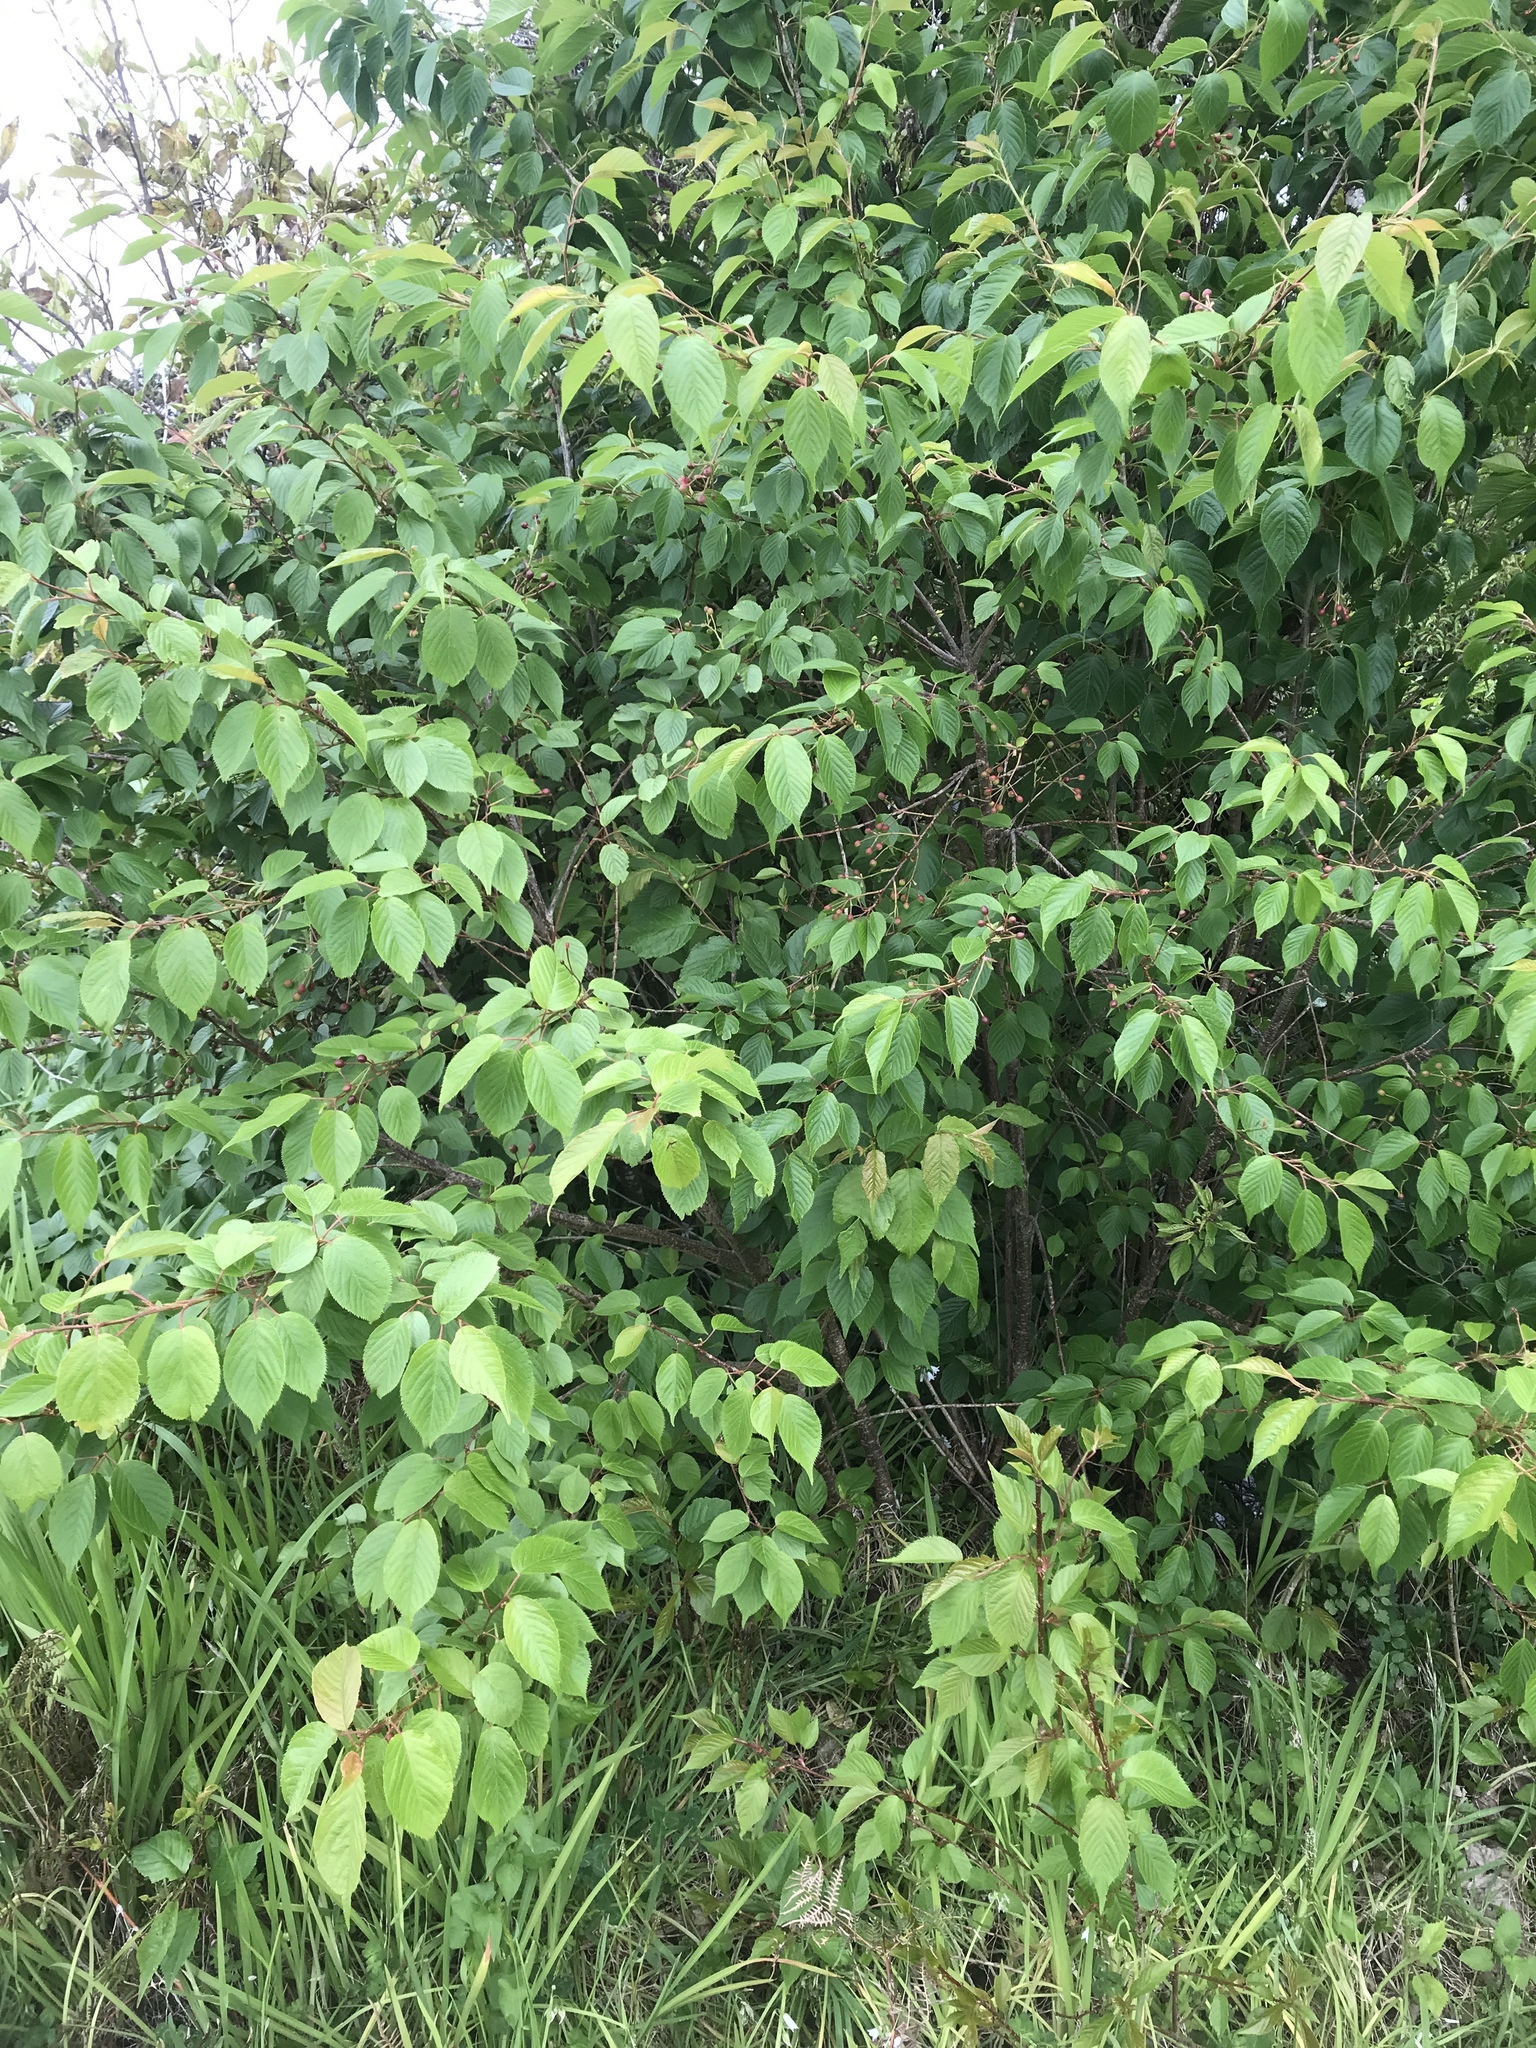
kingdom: Plantae
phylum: Tracheophyta
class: Magnoliopsida
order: Rosales
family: Rosaceae
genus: Prunus
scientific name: Prunus serrulata
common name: Japanese cherry
